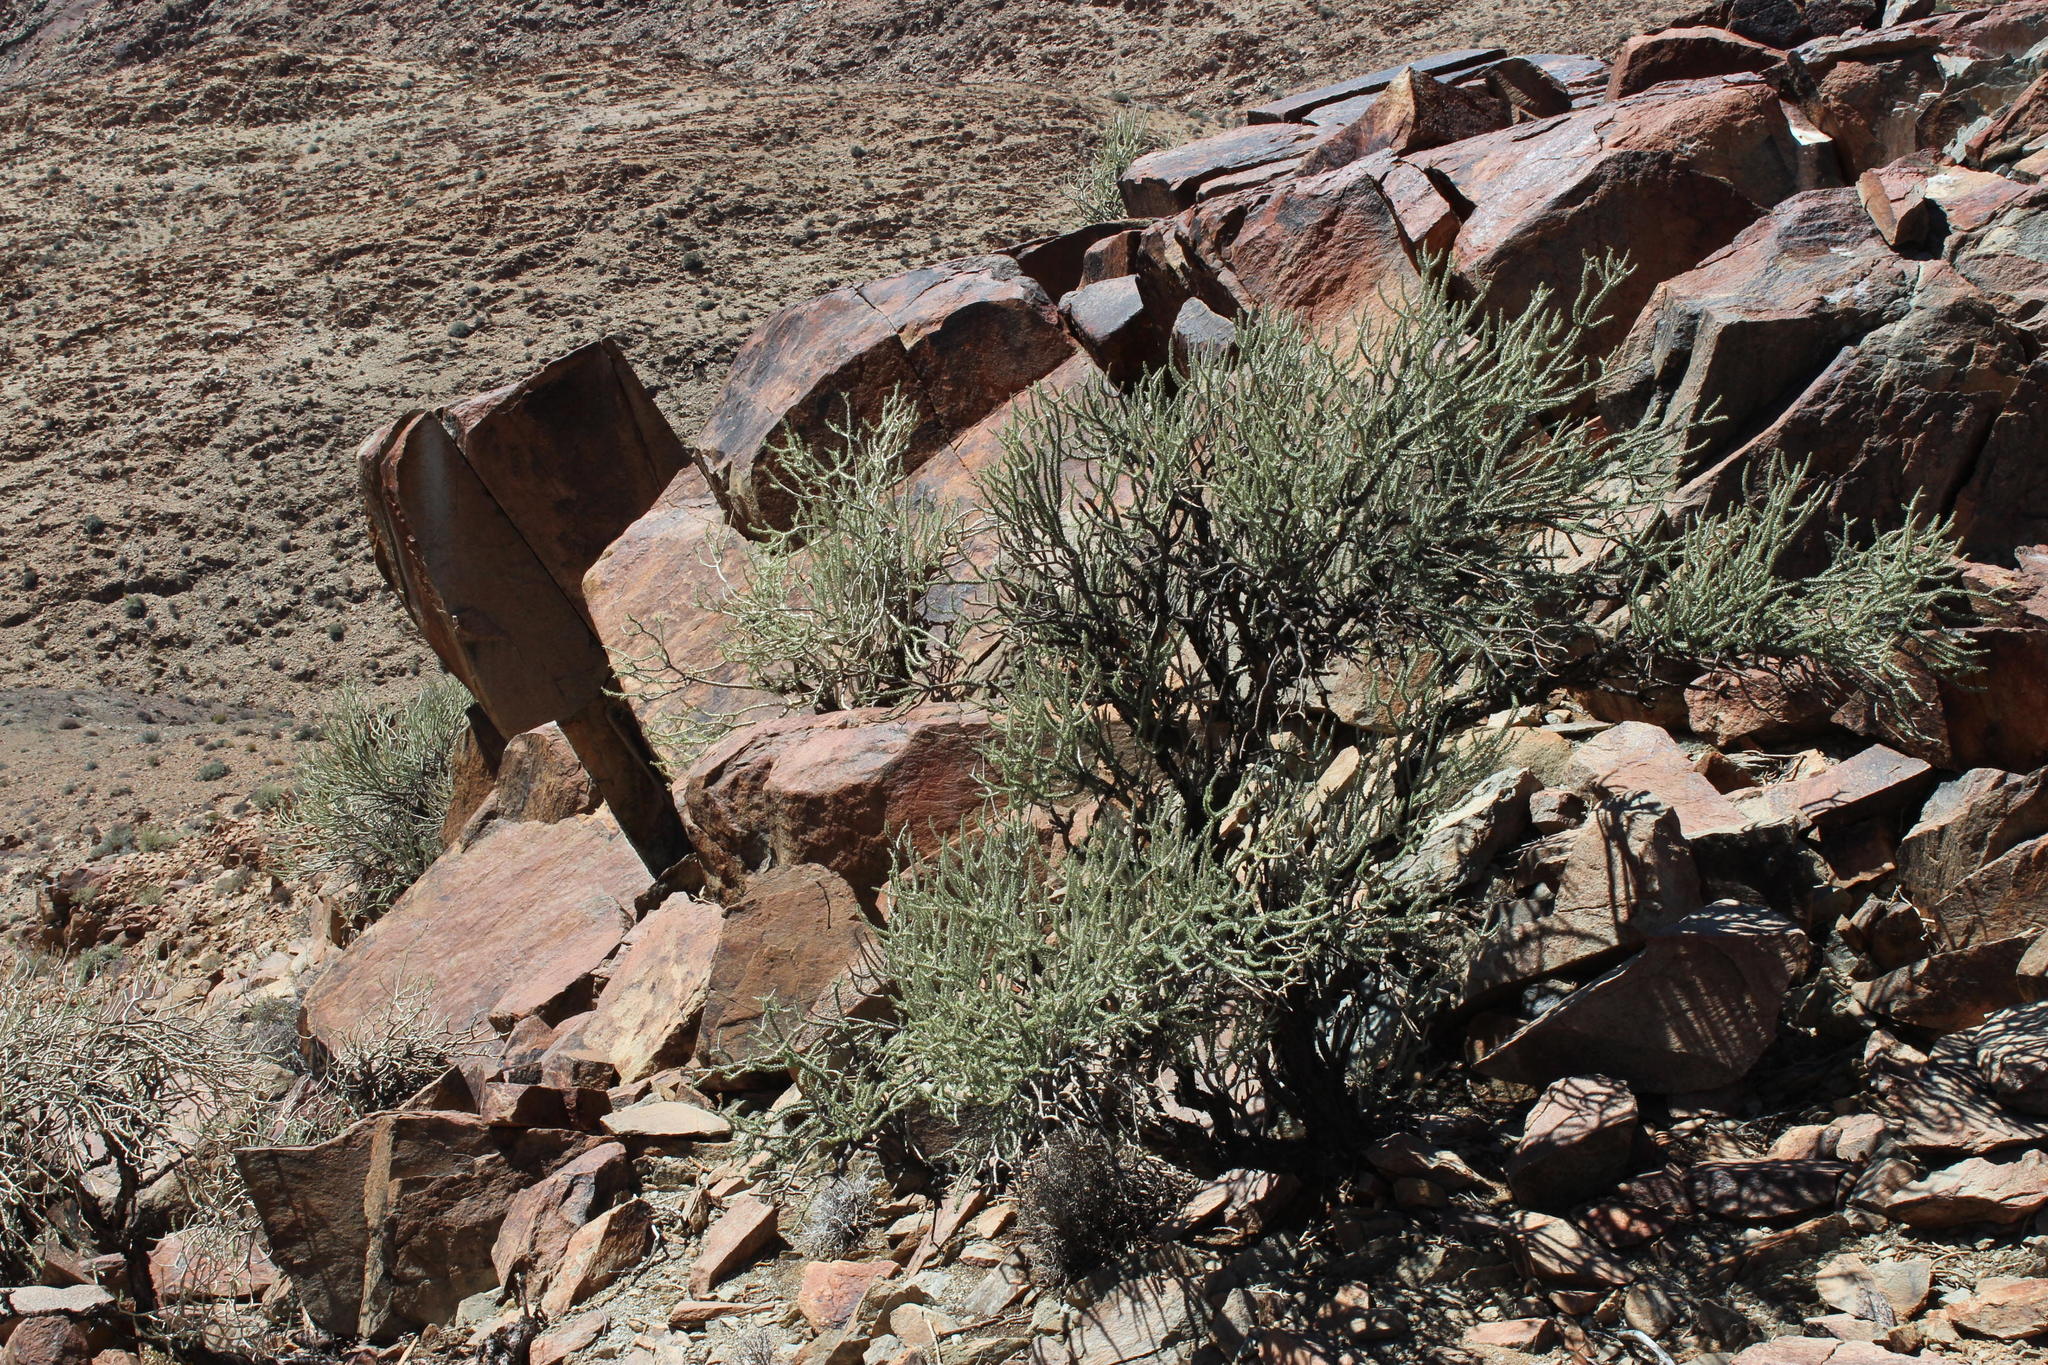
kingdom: Plantae
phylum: Tracheophyta
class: Magnoliopsida
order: Caryophyllales
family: Didiereaceae
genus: Portulacaria
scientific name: Portulacaria namaquensis
